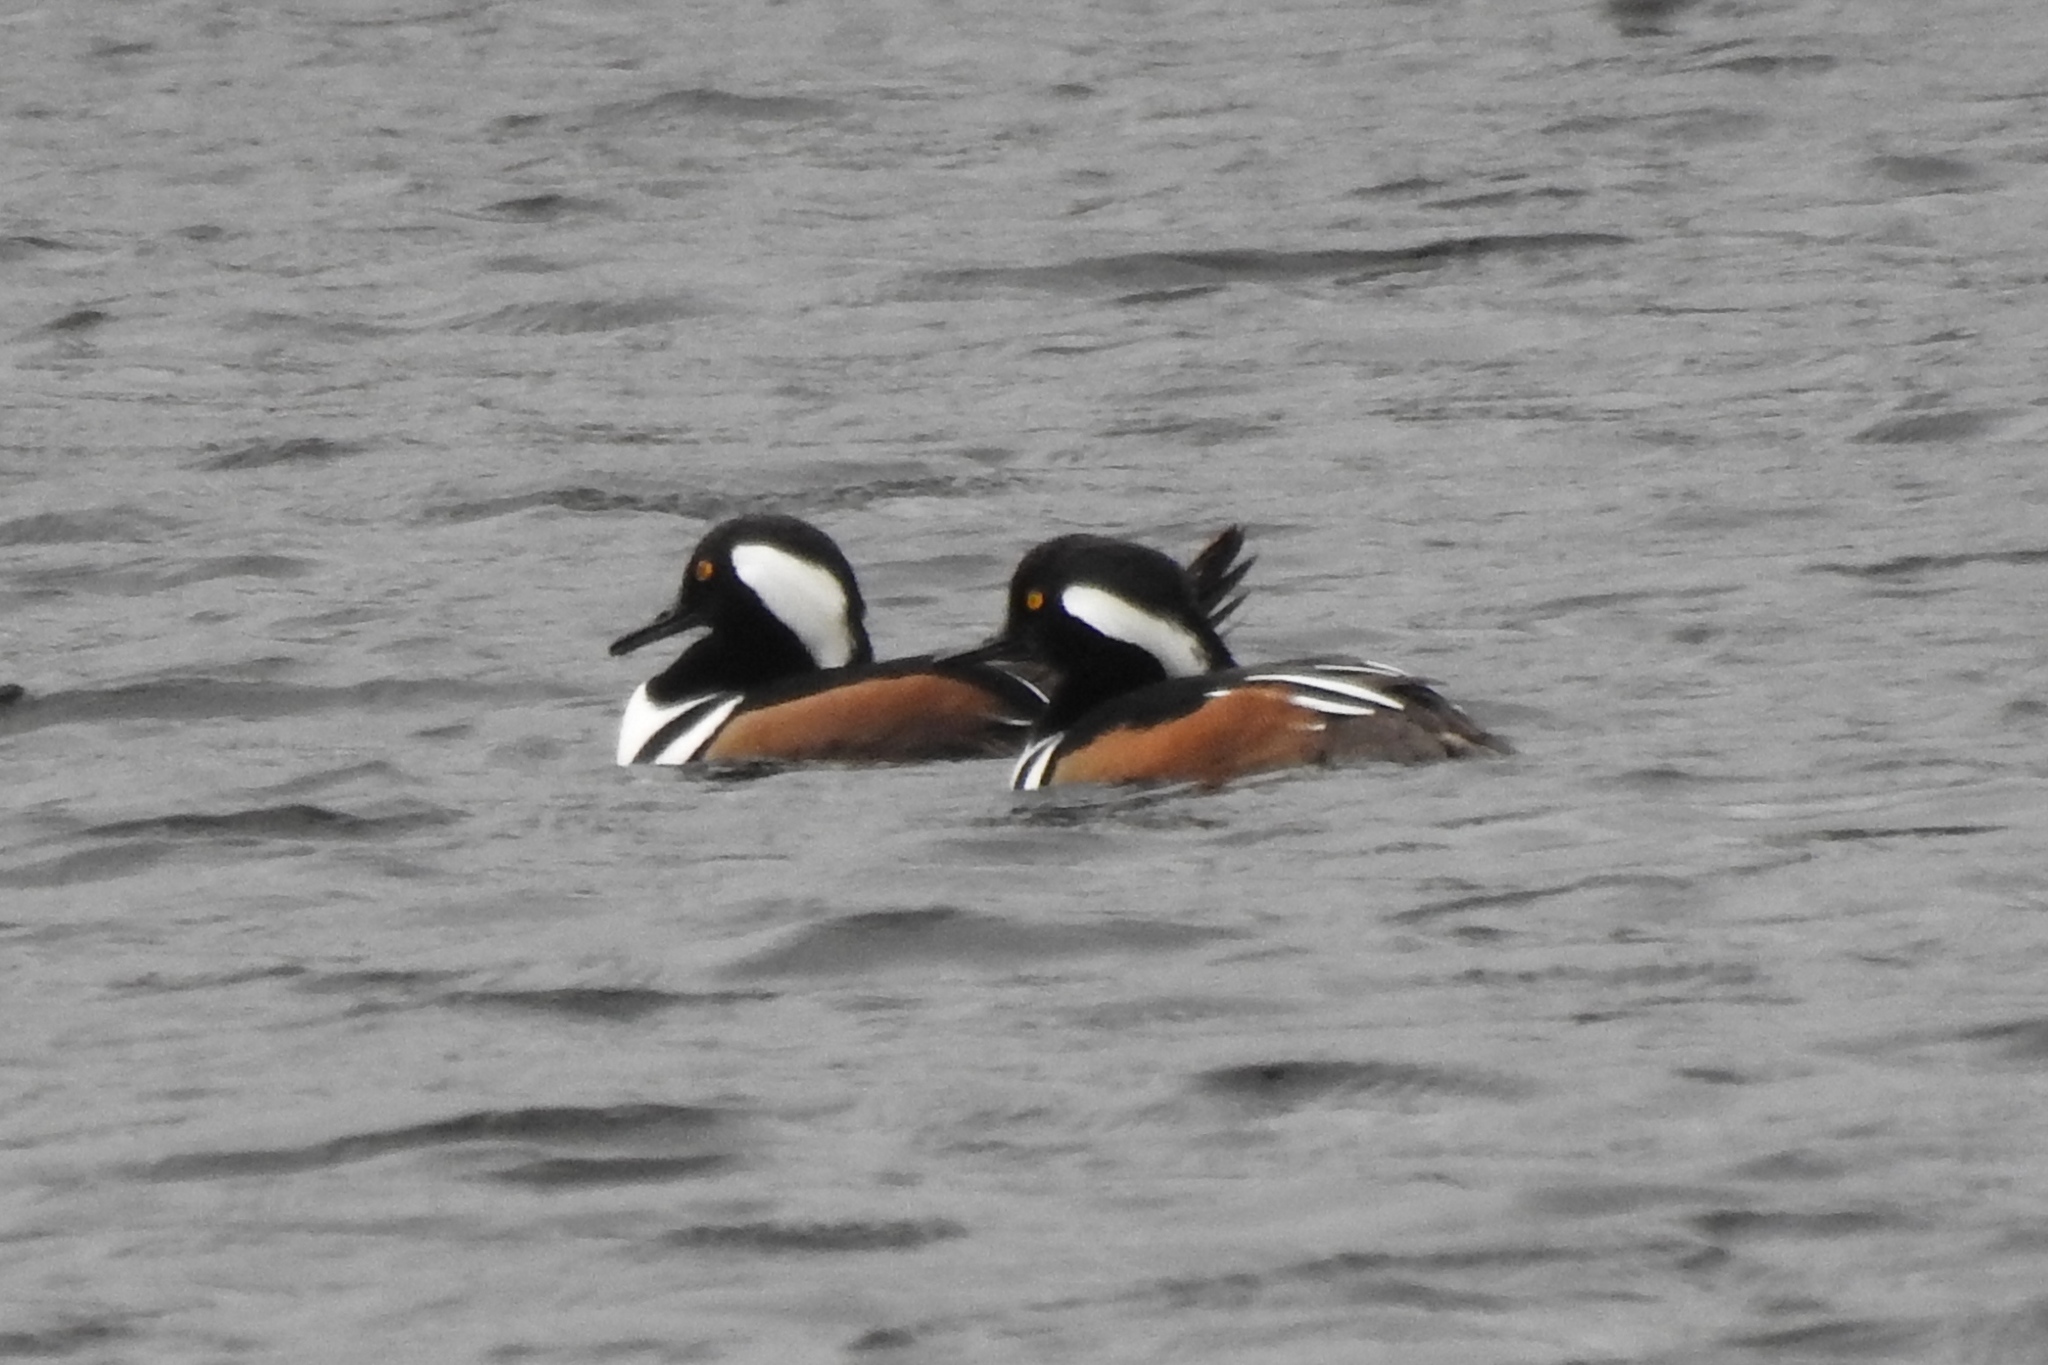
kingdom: Animalia
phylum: Chordata
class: Aves
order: Anseriformes
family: Anatidae
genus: Lophodytes
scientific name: Lophodytes cucullatus
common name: Hooded merganser
